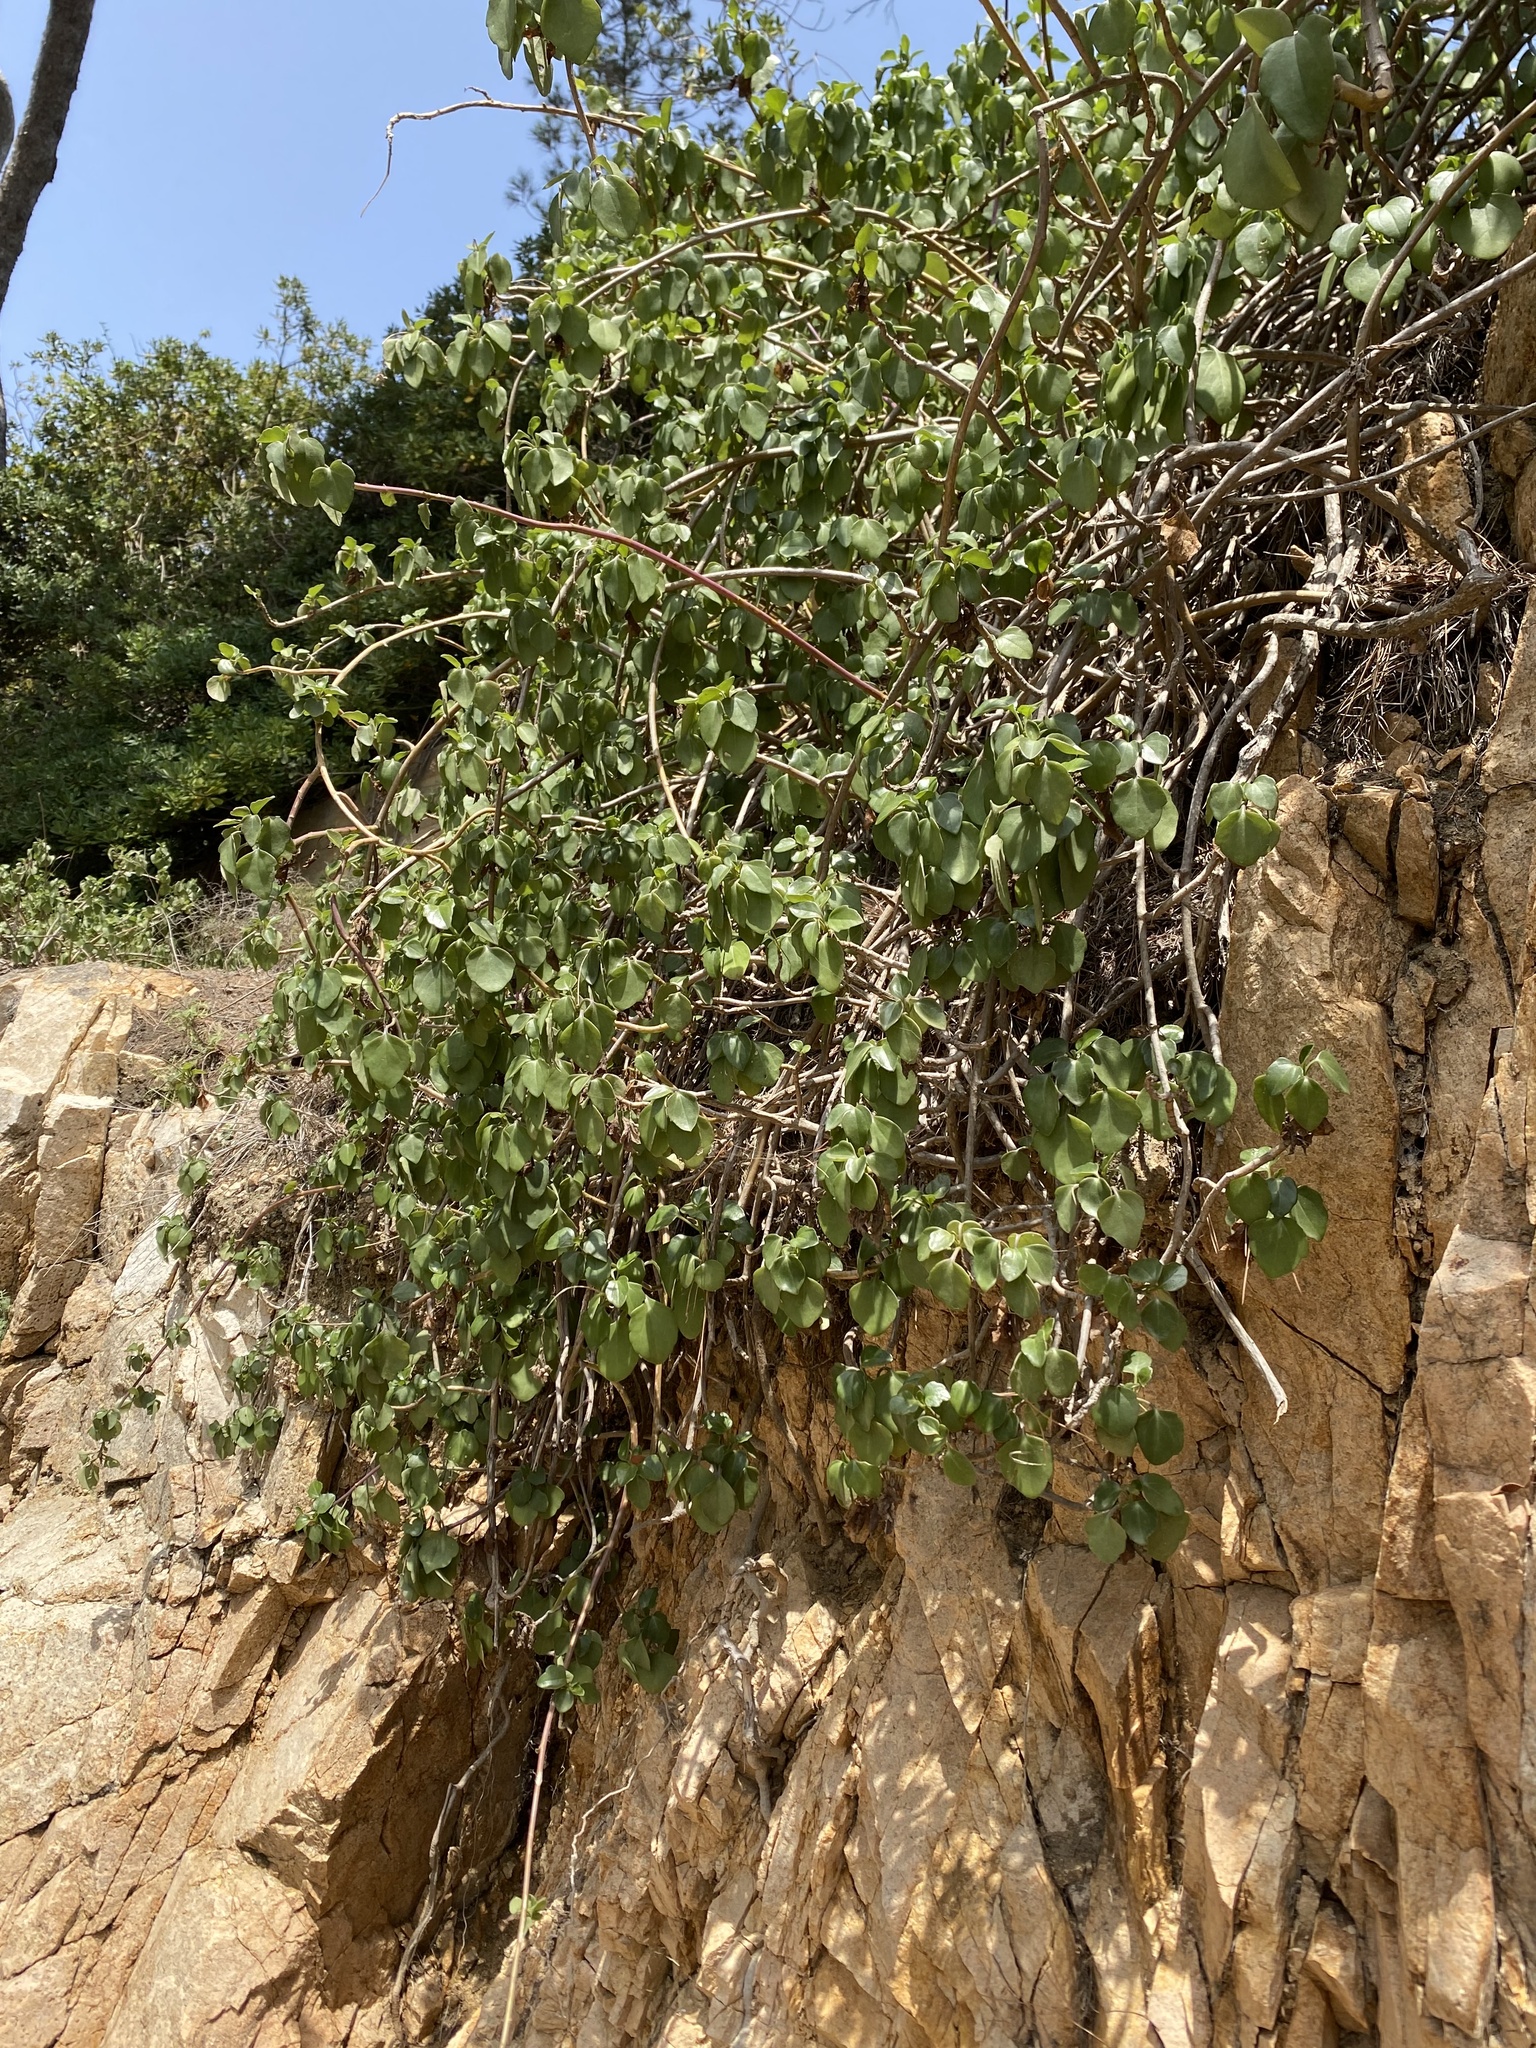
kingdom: Plantae
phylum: Tracheophyta
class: Magnoliopsida
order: Asterales
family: Asteraceae
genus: Senecio
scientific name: Senecio angulatus
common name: Climbing groundsel
